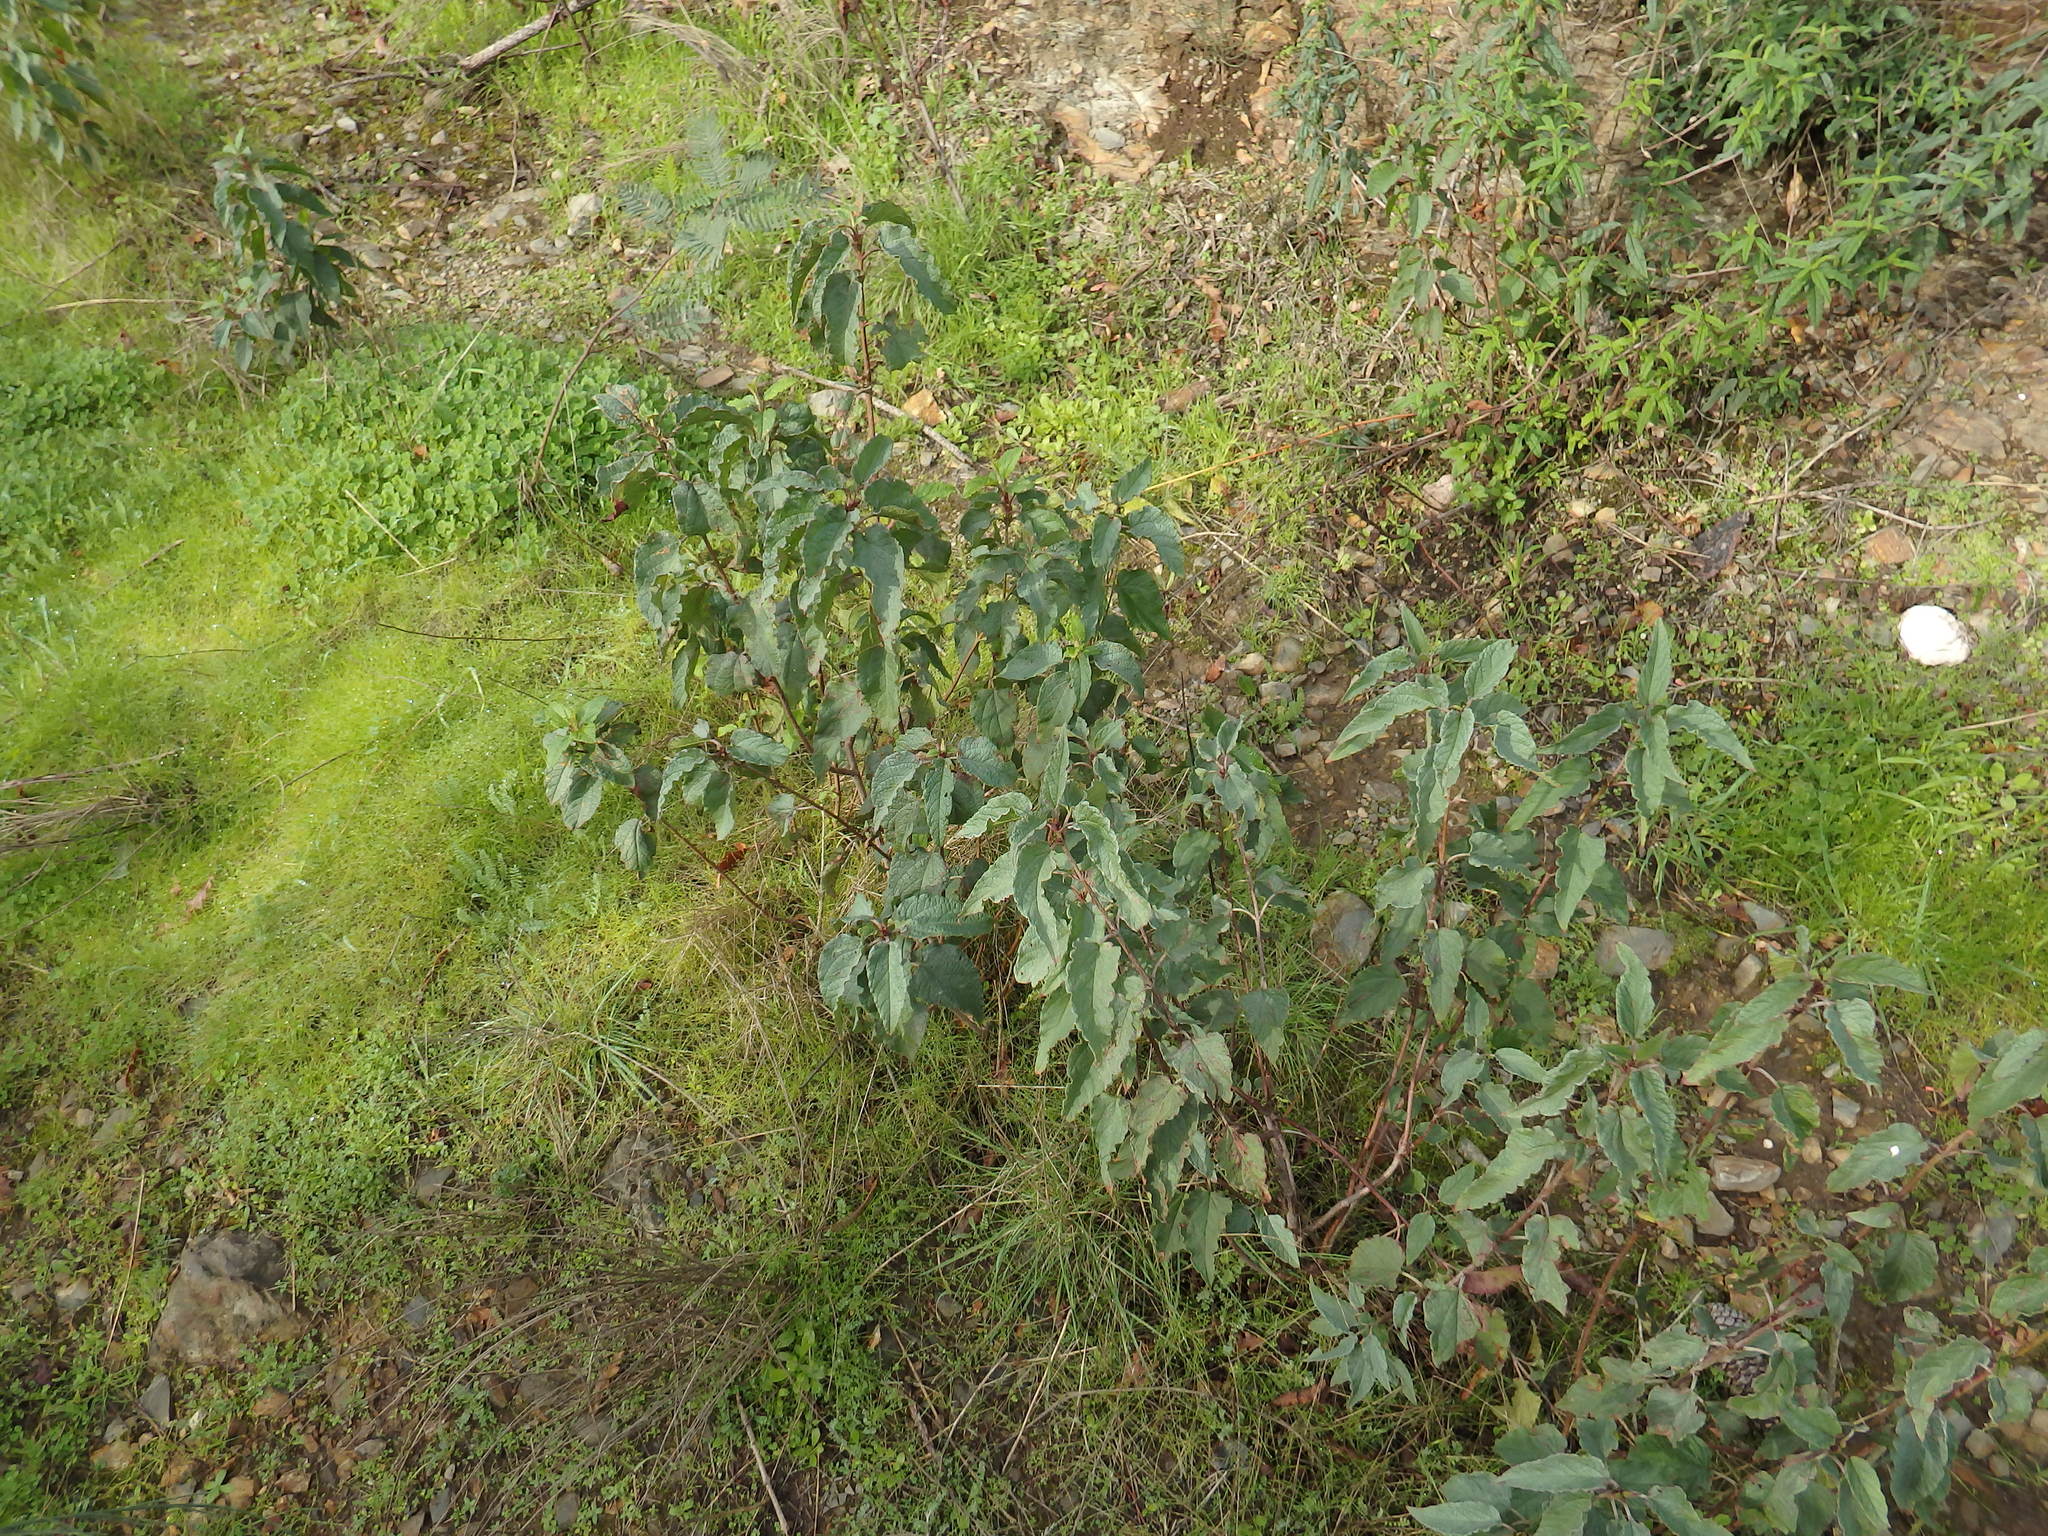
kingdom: Plantae
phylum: Tracheophyta
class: Magnoliopsida
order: Malvales
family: Cistaceae
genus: Cistus
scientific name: Cistus populifolius
